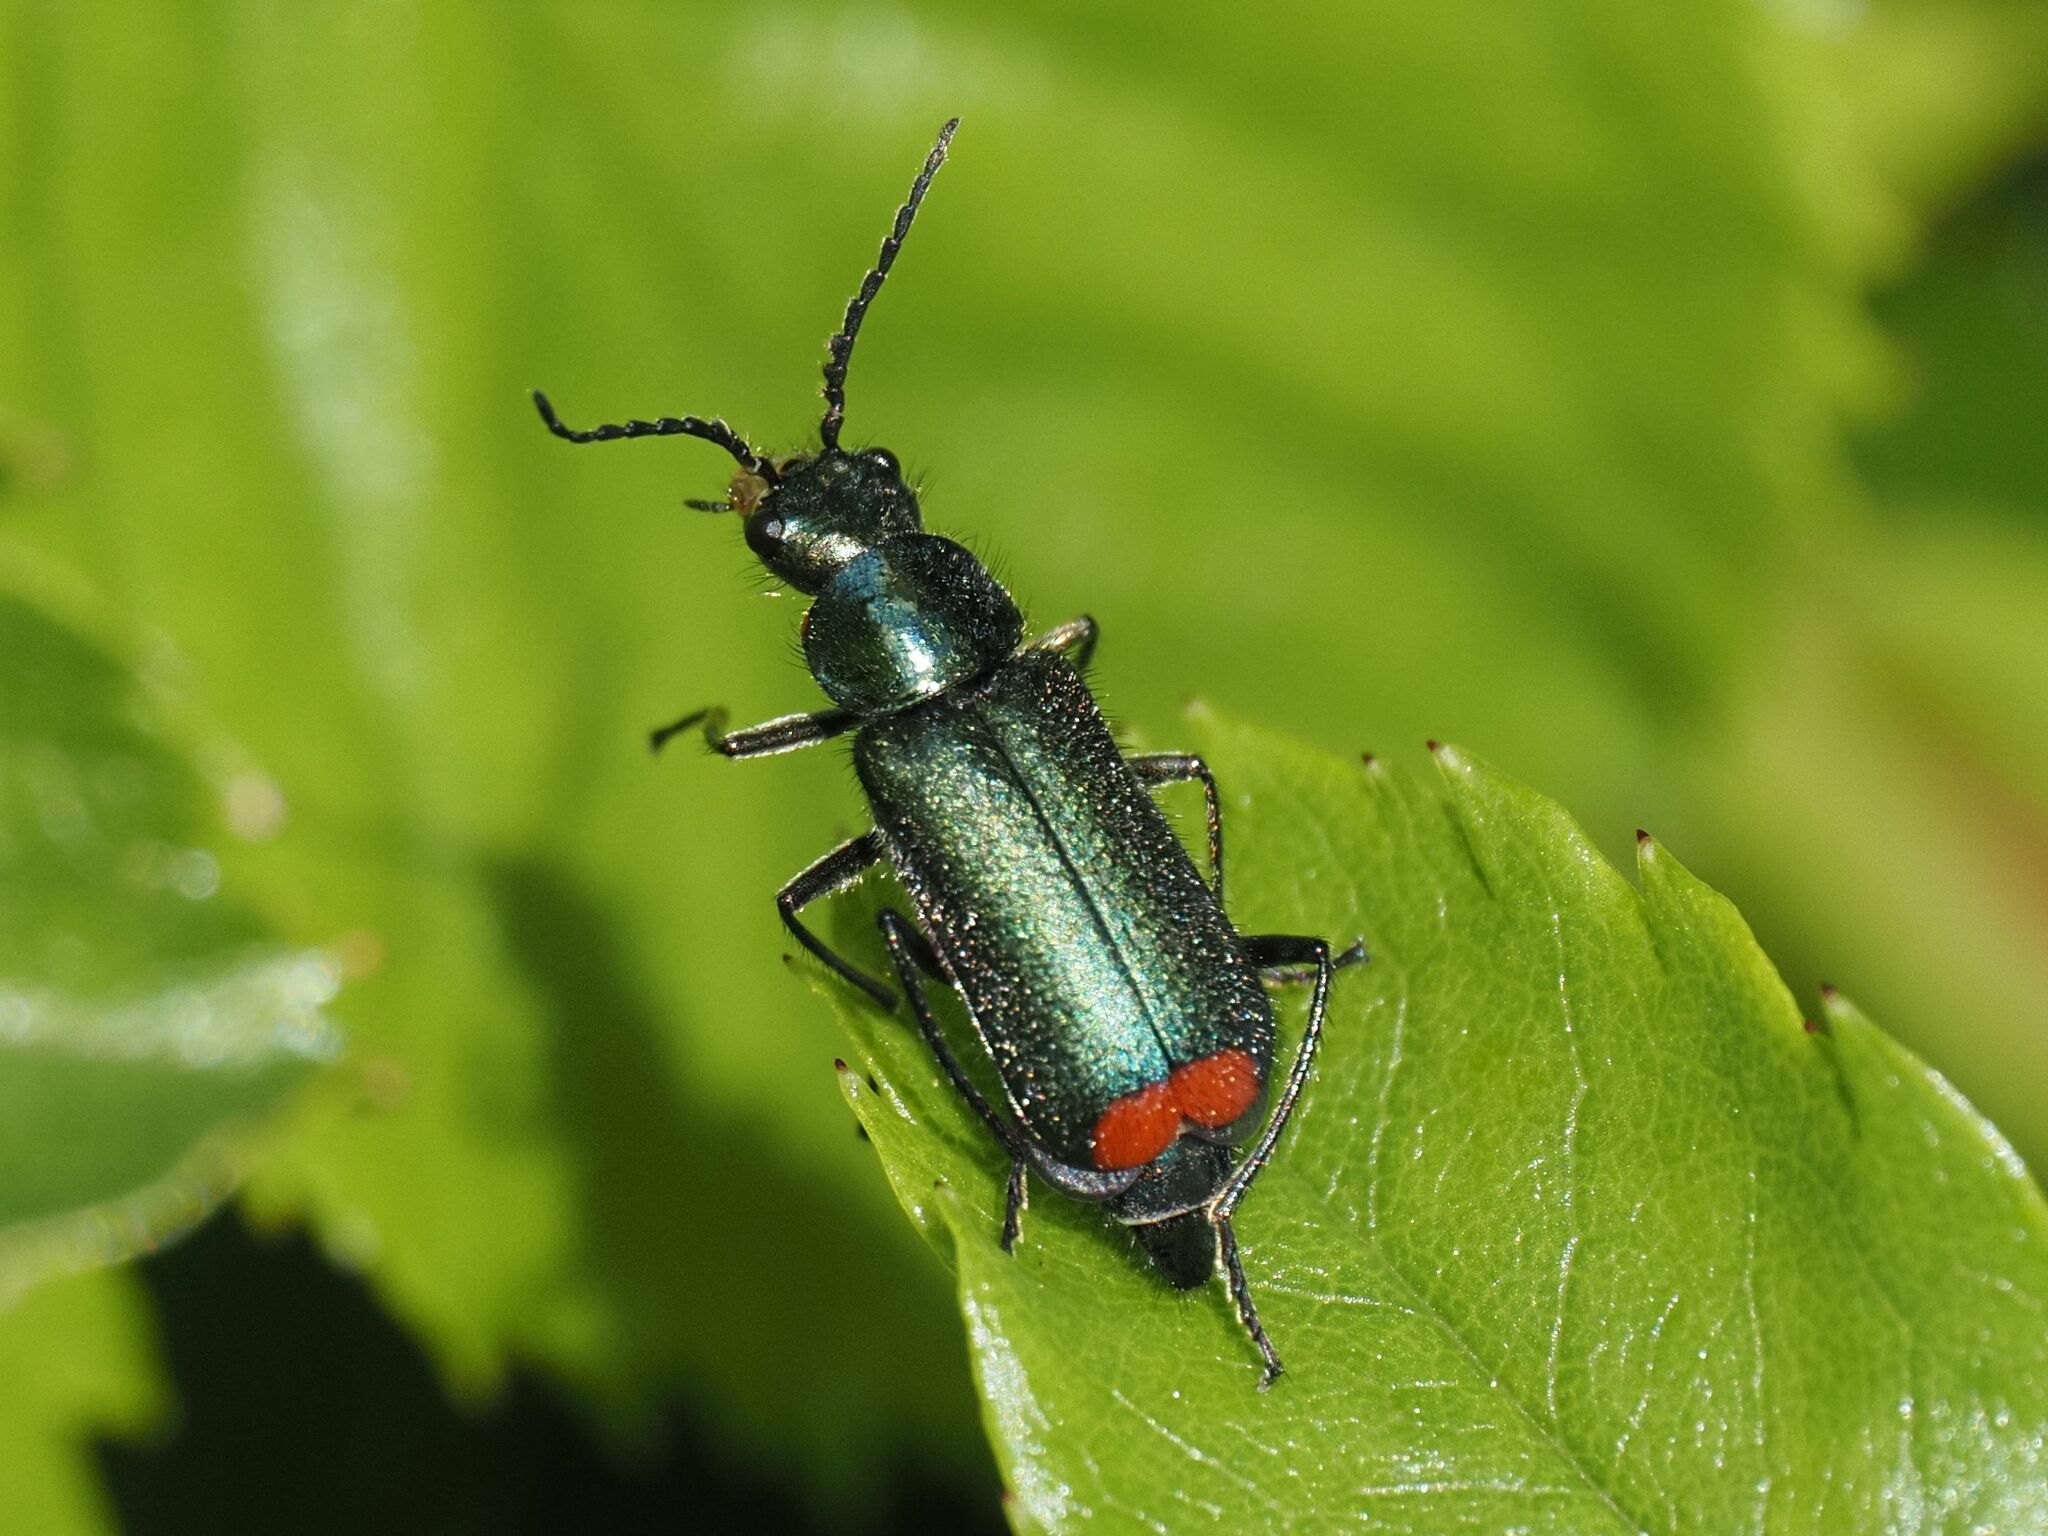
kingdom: Animalia
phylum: Arthropoda
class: Insecta
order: Coleoptera
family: Melyridae
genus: Malachius
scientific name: Malachius bipustulatus
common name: Malachite beetle
